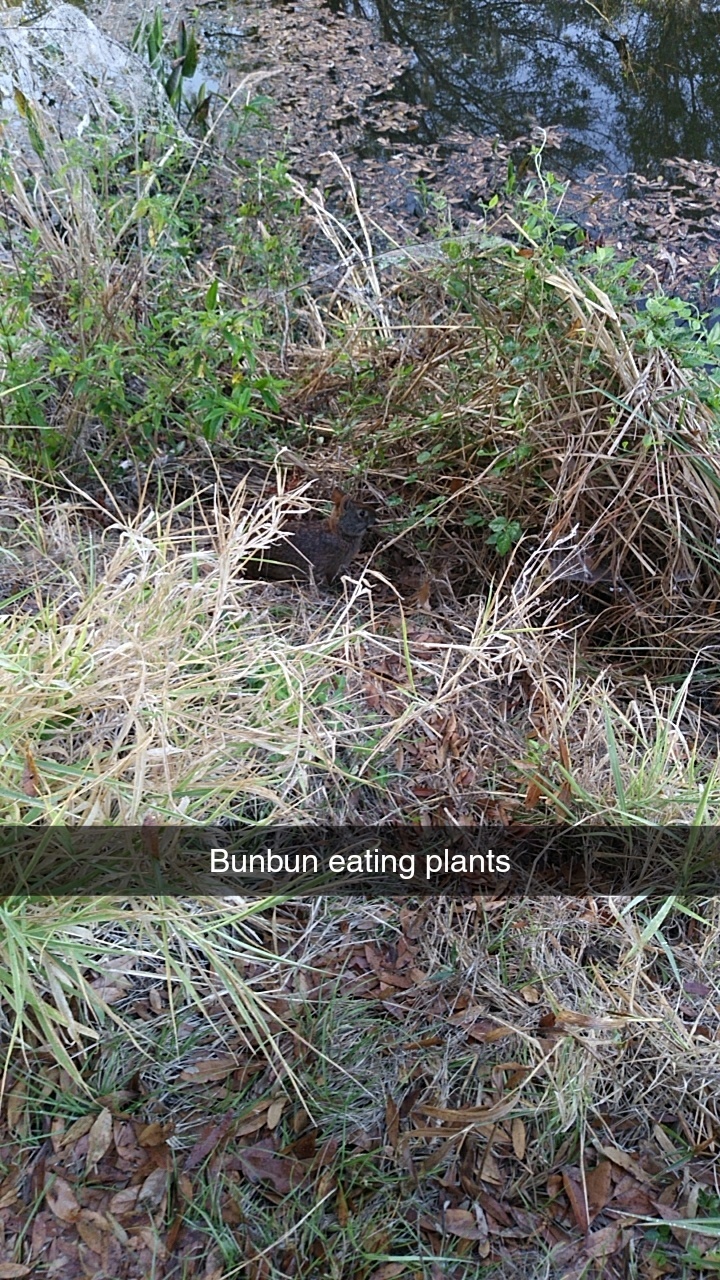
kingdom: Animalia
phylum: Chordata
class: Mammalia
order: Lagomorpha
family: Leporidae
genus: Sylvilagus
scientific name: Sylvilagus palustris
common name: Marsh rabbit
